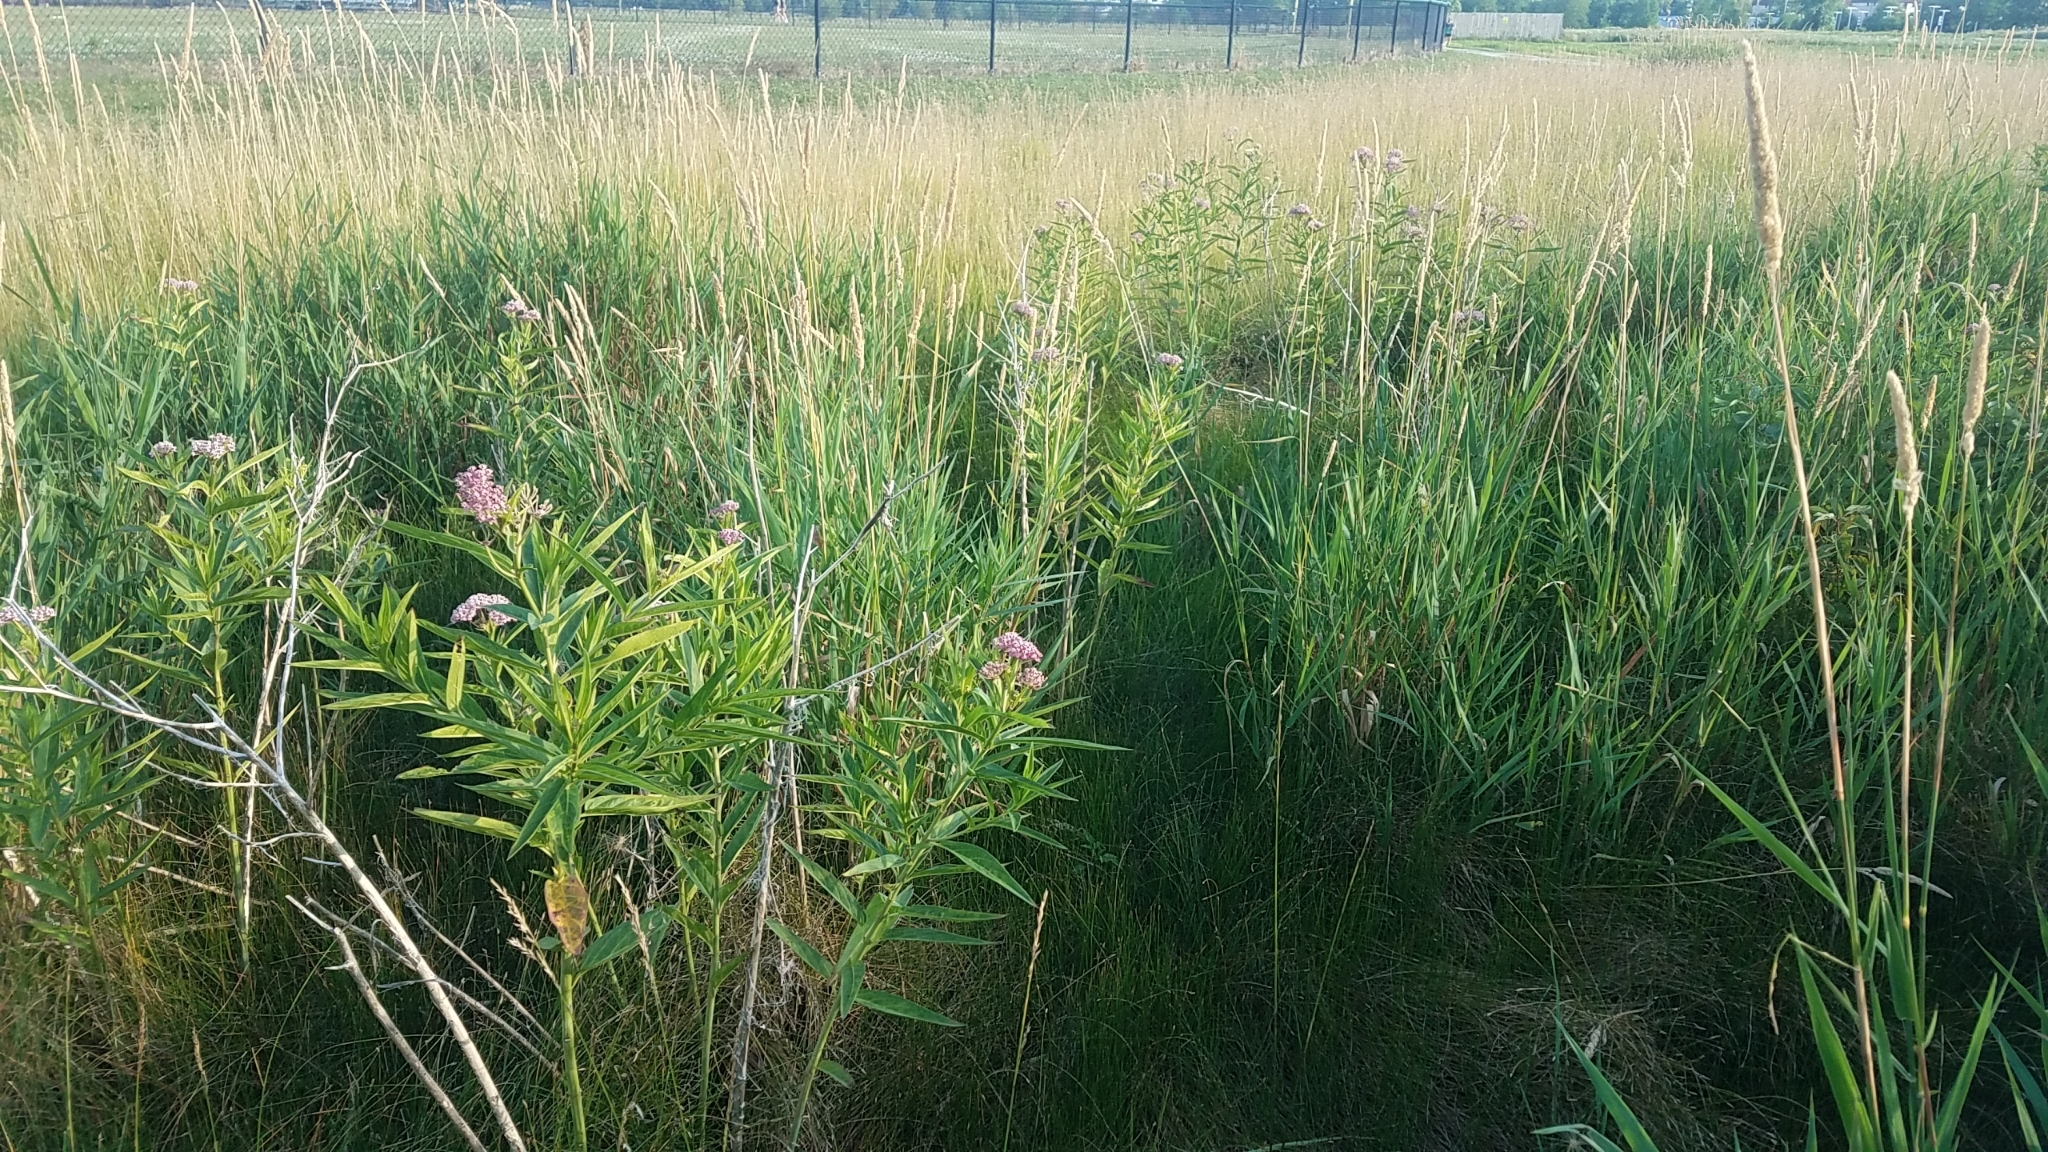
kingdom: Plantae
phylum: Tracheophyta
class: Magnoliopsida
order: Gentianales
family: Apocynaceae
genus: Asclepias
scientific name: Asclepias incarnata
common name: Swamp milkweed
